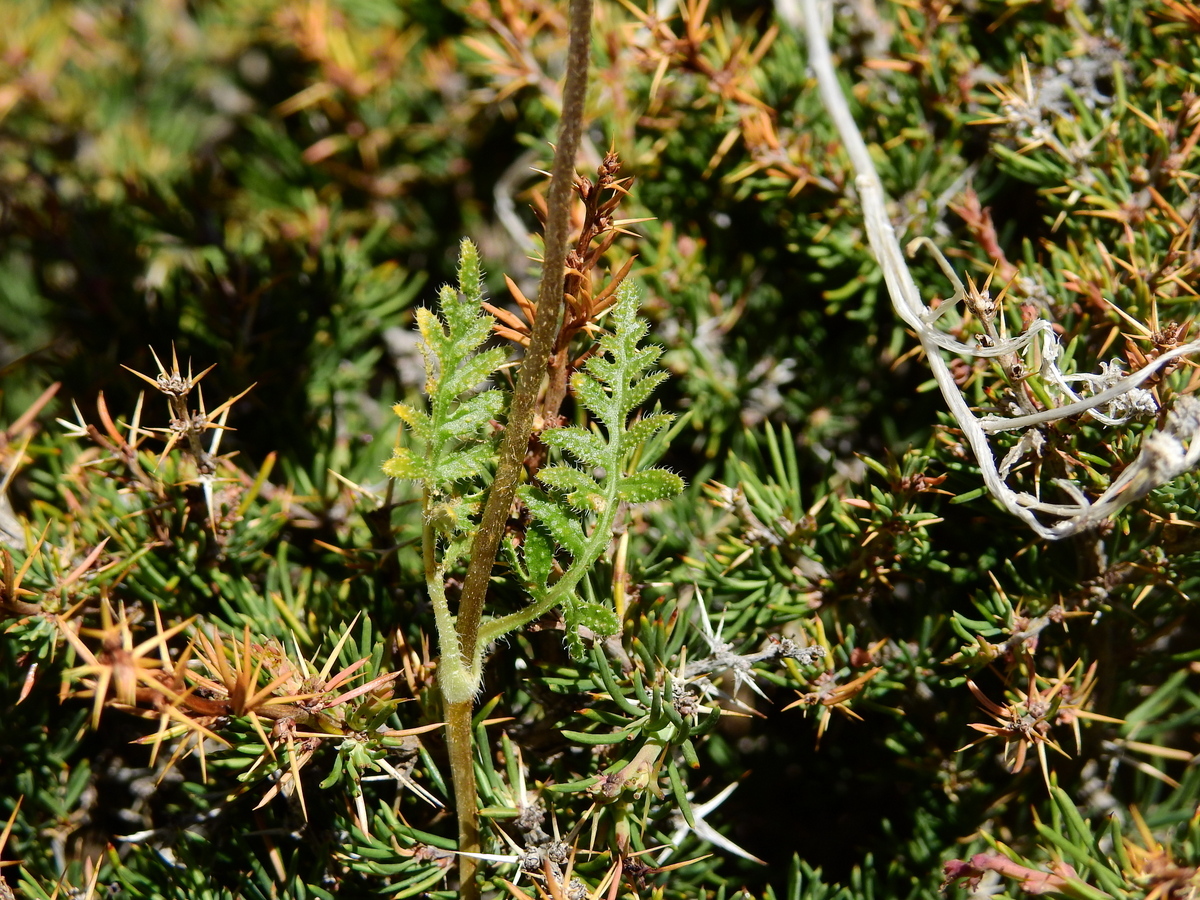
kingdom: Plantae
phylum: Tracheophyta
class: Magnoliopsida
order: Cornales
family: Loasaceae
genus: Pinnasa
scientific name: Pinnasa pinnatifida
